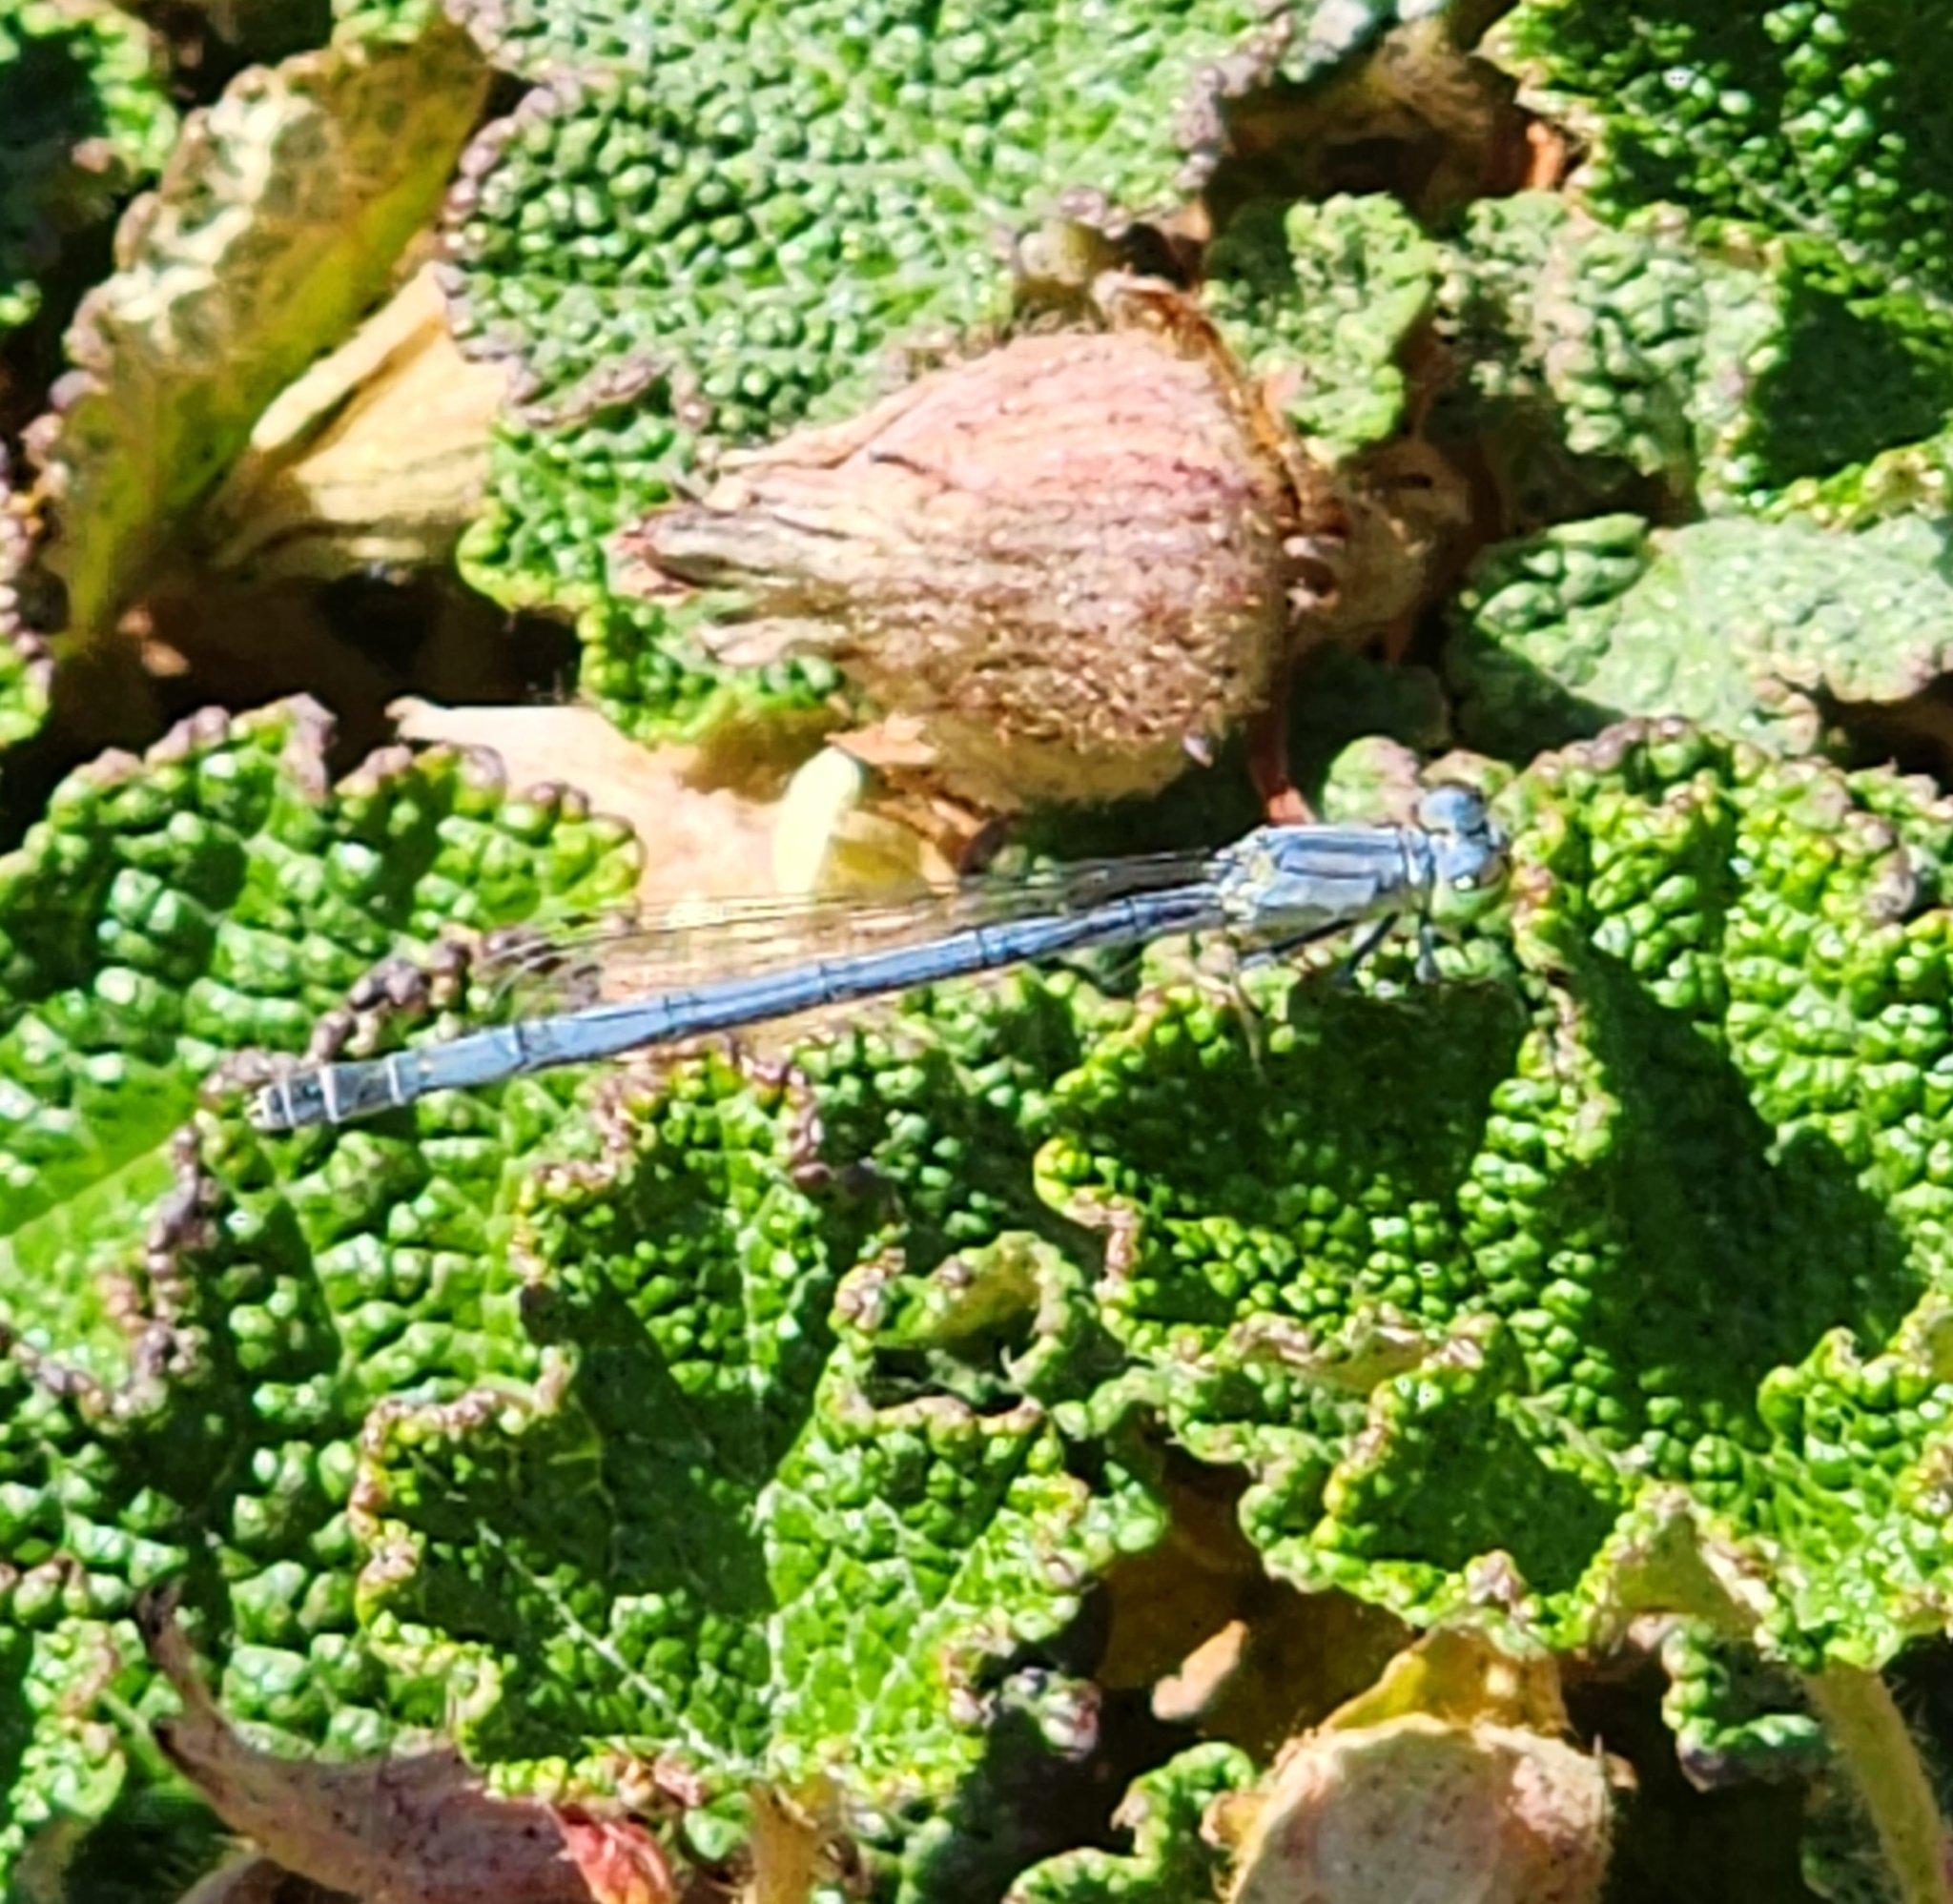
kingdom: Animalia
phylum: Arthropoda
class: Insecta
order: Odonata
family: Coenagrionidae
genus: Ischnura
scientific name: Ischnura perparva
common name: Western forktail
